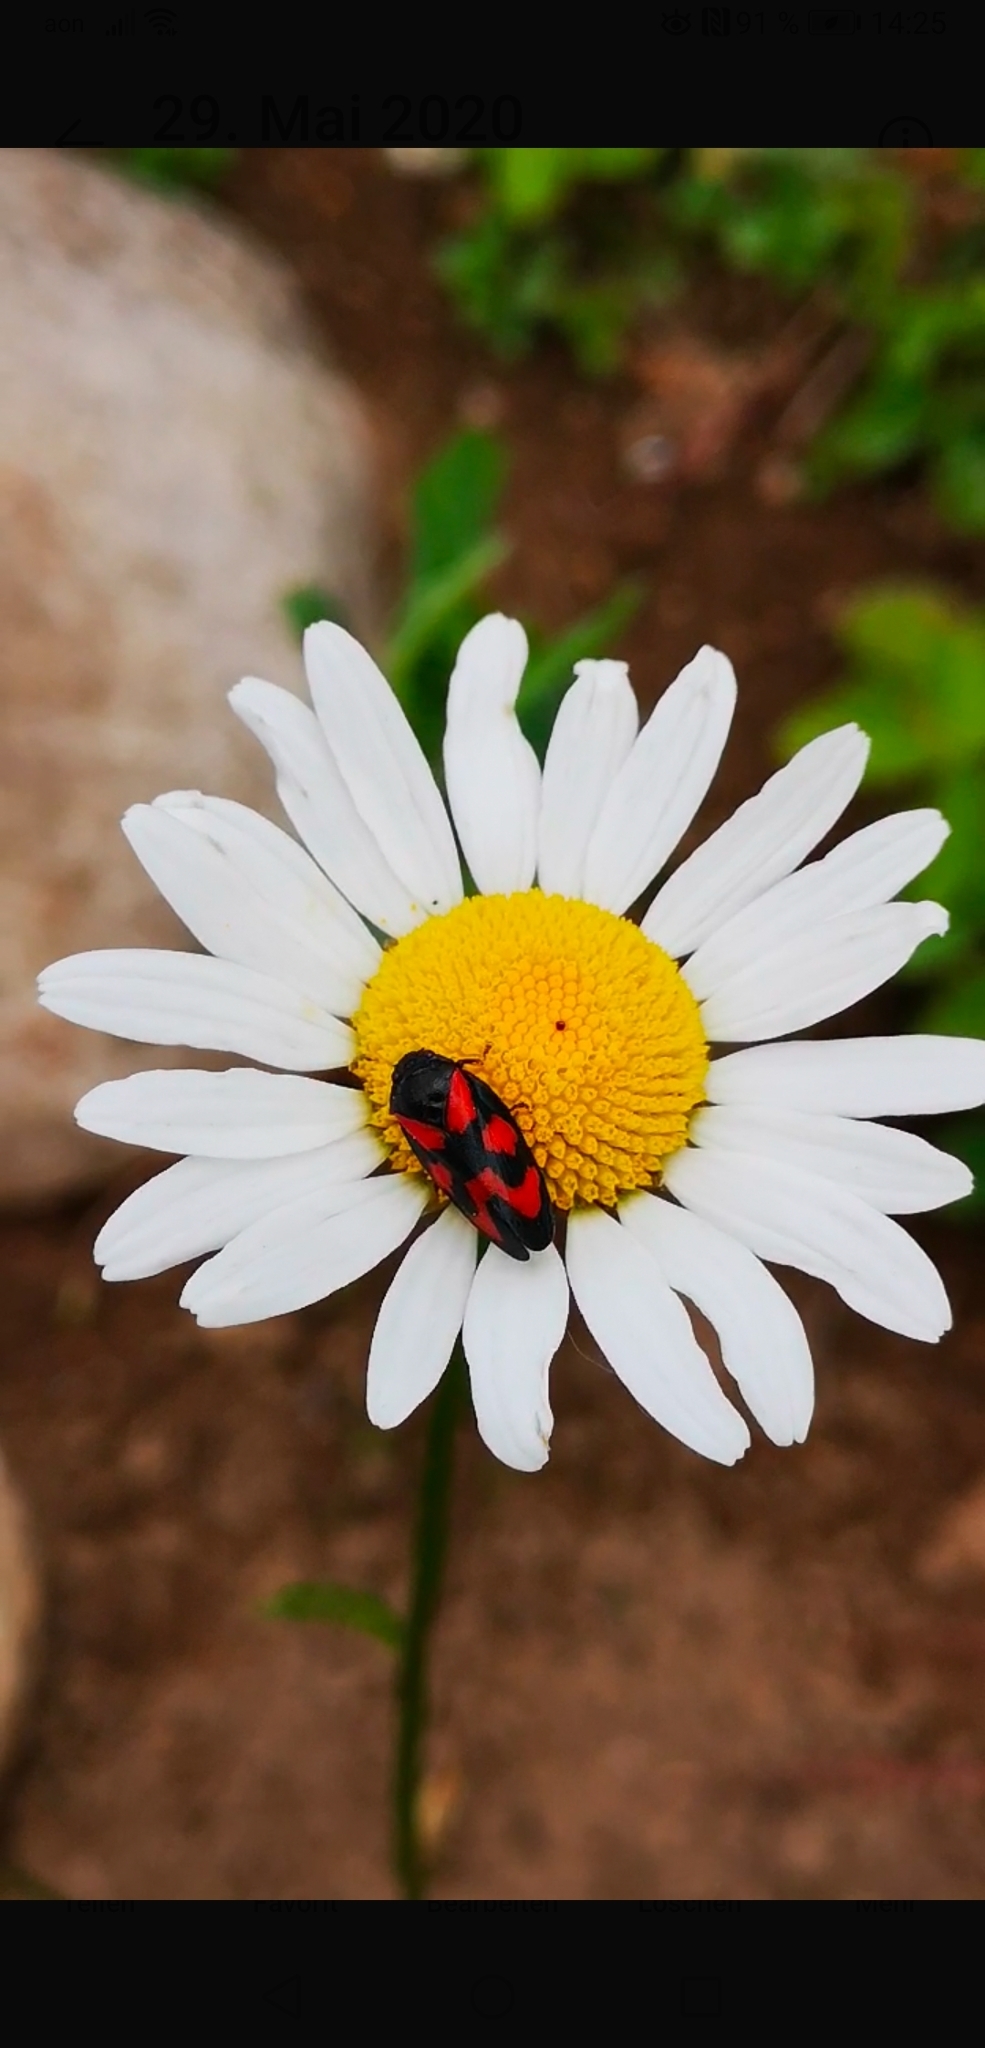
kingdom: Animalia
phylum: Arthropoda
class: Insecta
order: Hemiptera
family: Cercopidae
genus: Cercopis
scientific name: Cercopis vulnerata
